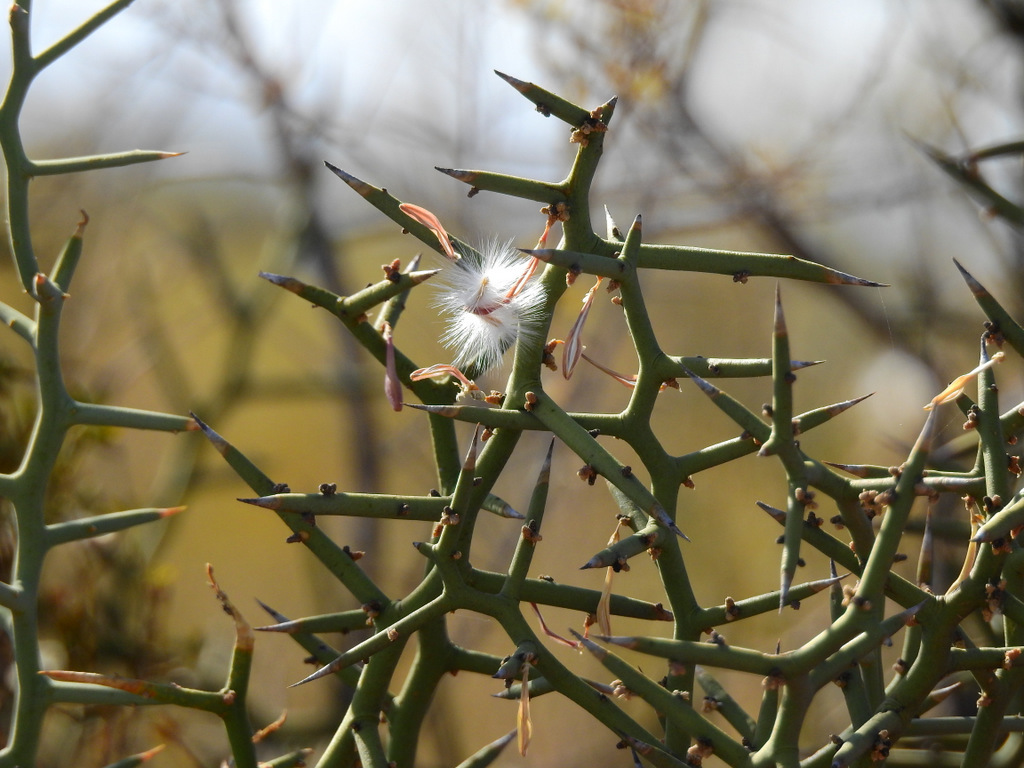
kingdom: Plantae
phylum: Tracheophyta
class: Magnoliopsida
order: Fabales
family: Polygalaceae
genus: Bredemeyera
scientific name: Bredemeyera colletioides
